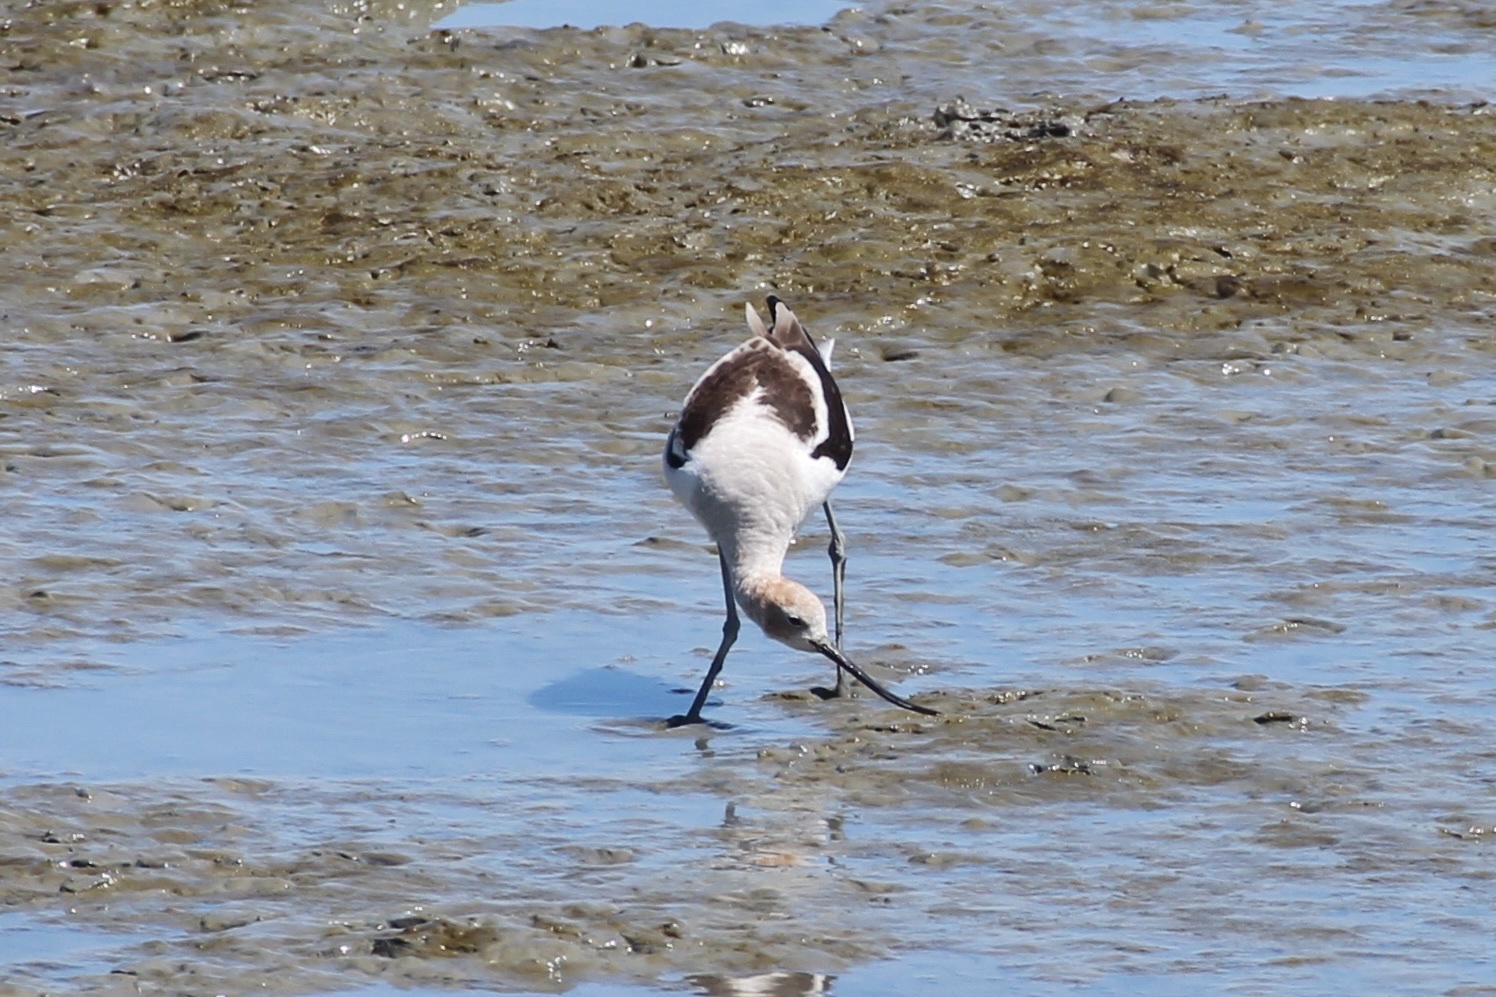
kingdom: Animalia
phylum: Chordata
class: Aves
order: Charadriiformes
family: Recurvirostridae
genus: Recurvirostra
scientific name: Recurvirostra americana
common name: American avocet
